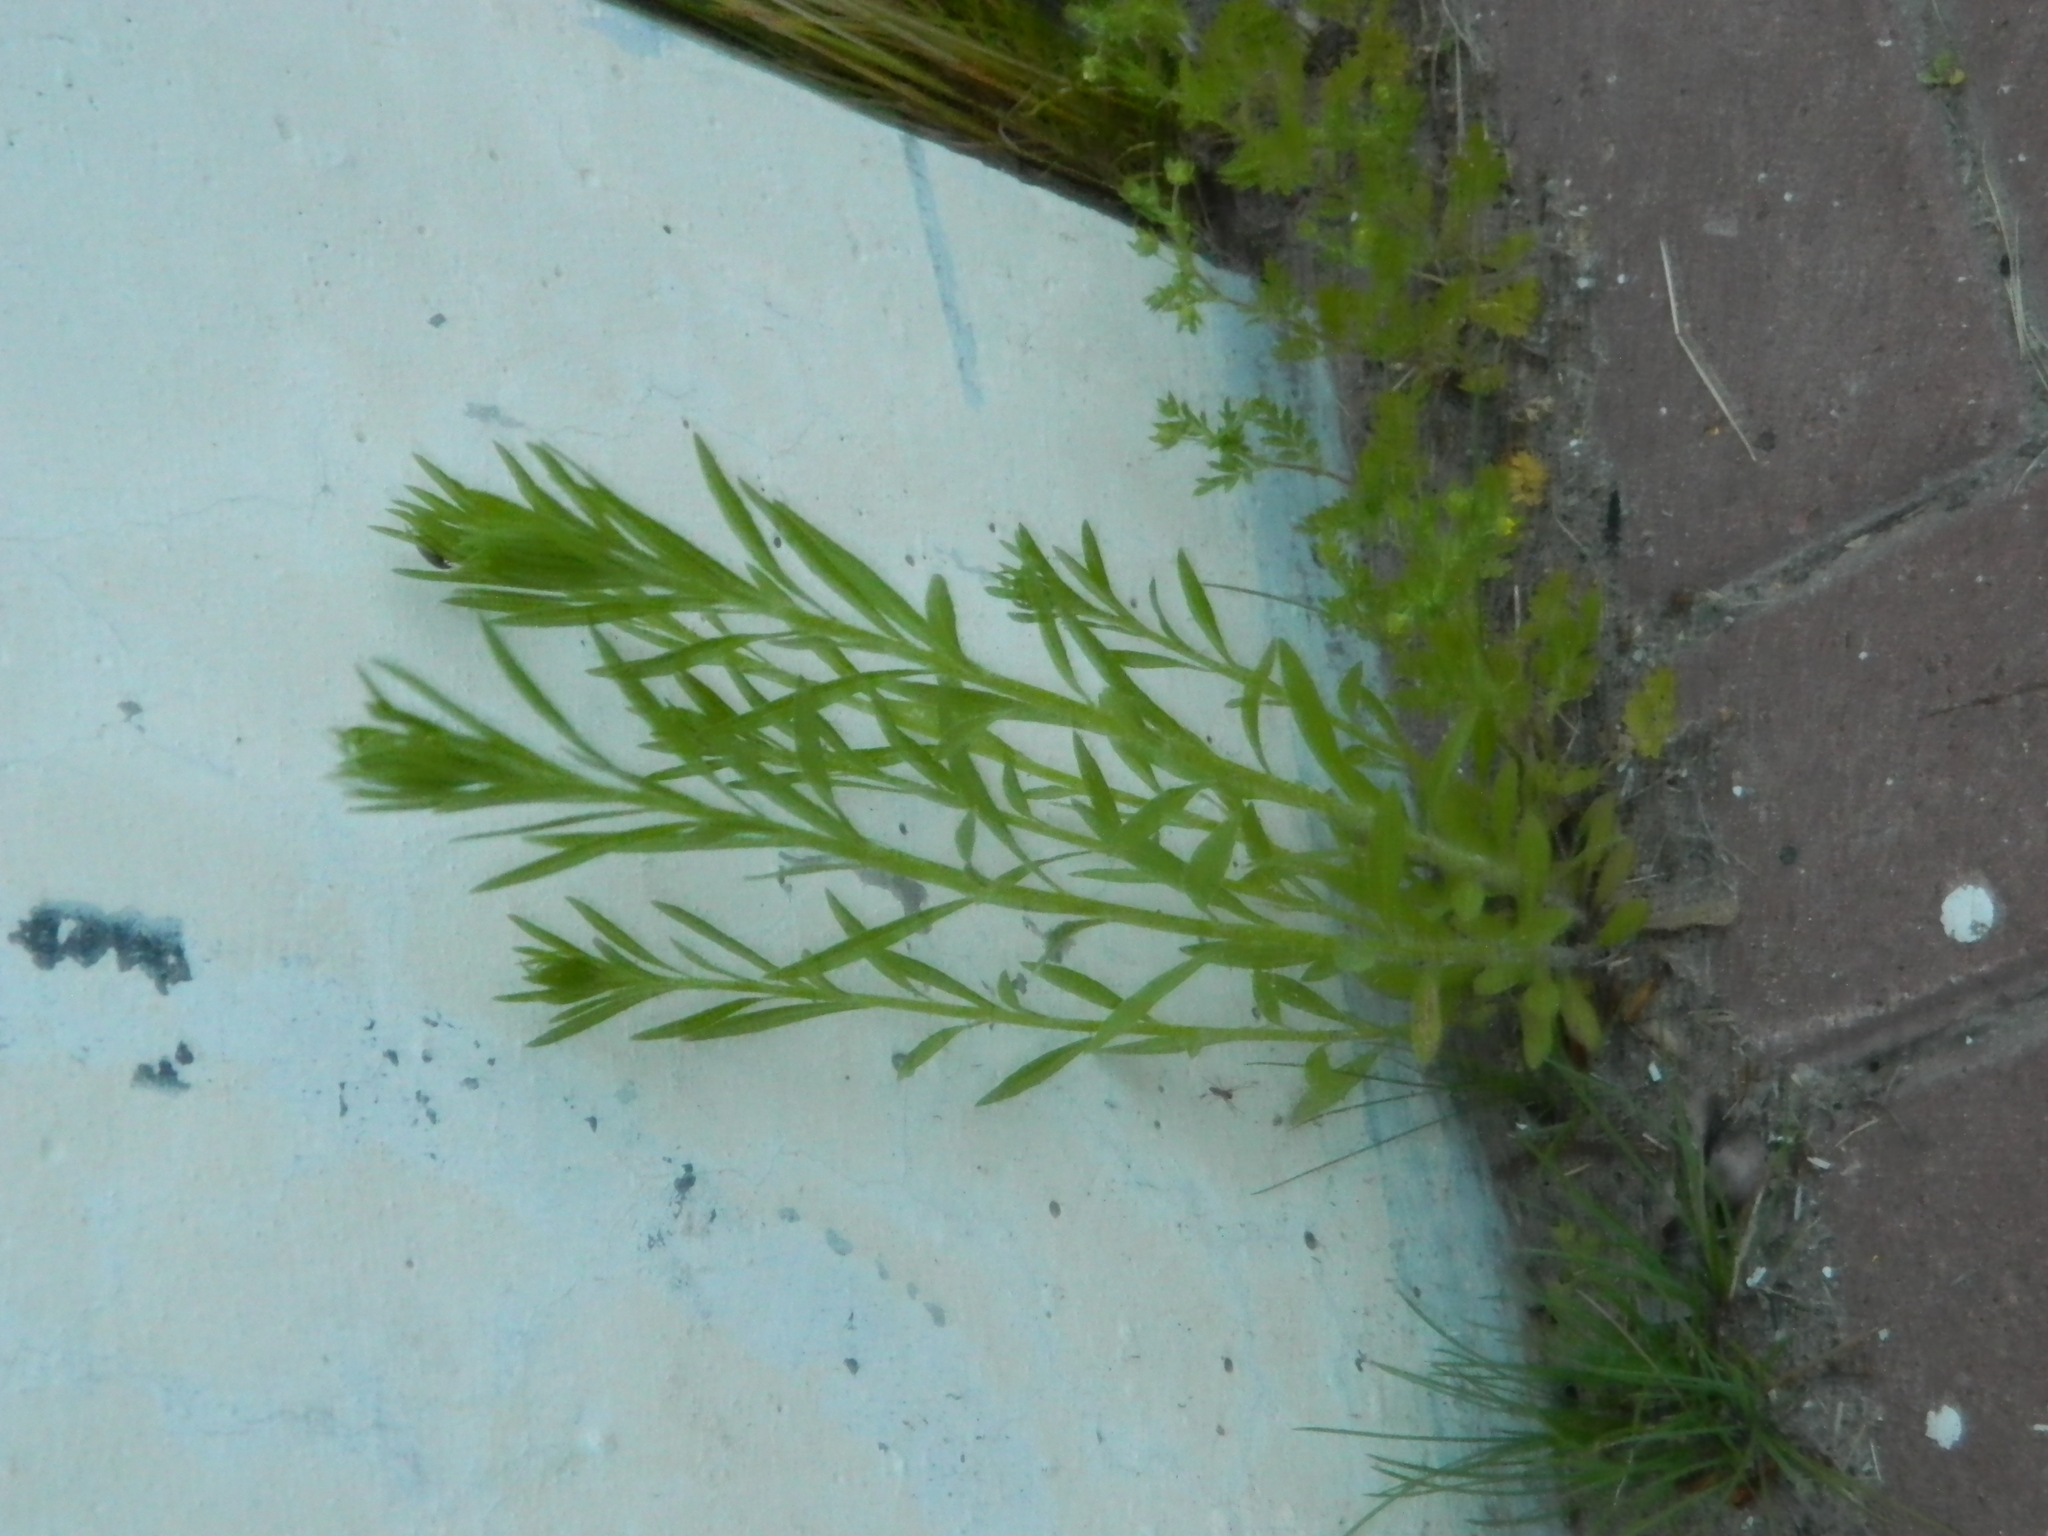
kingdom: Plantae
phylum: Tracheophyta
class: Magnoliopsida
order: Asterales
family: Asteraceae
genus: Erigeron
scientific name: Erigeron canadensis
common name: Canadian fleabane
